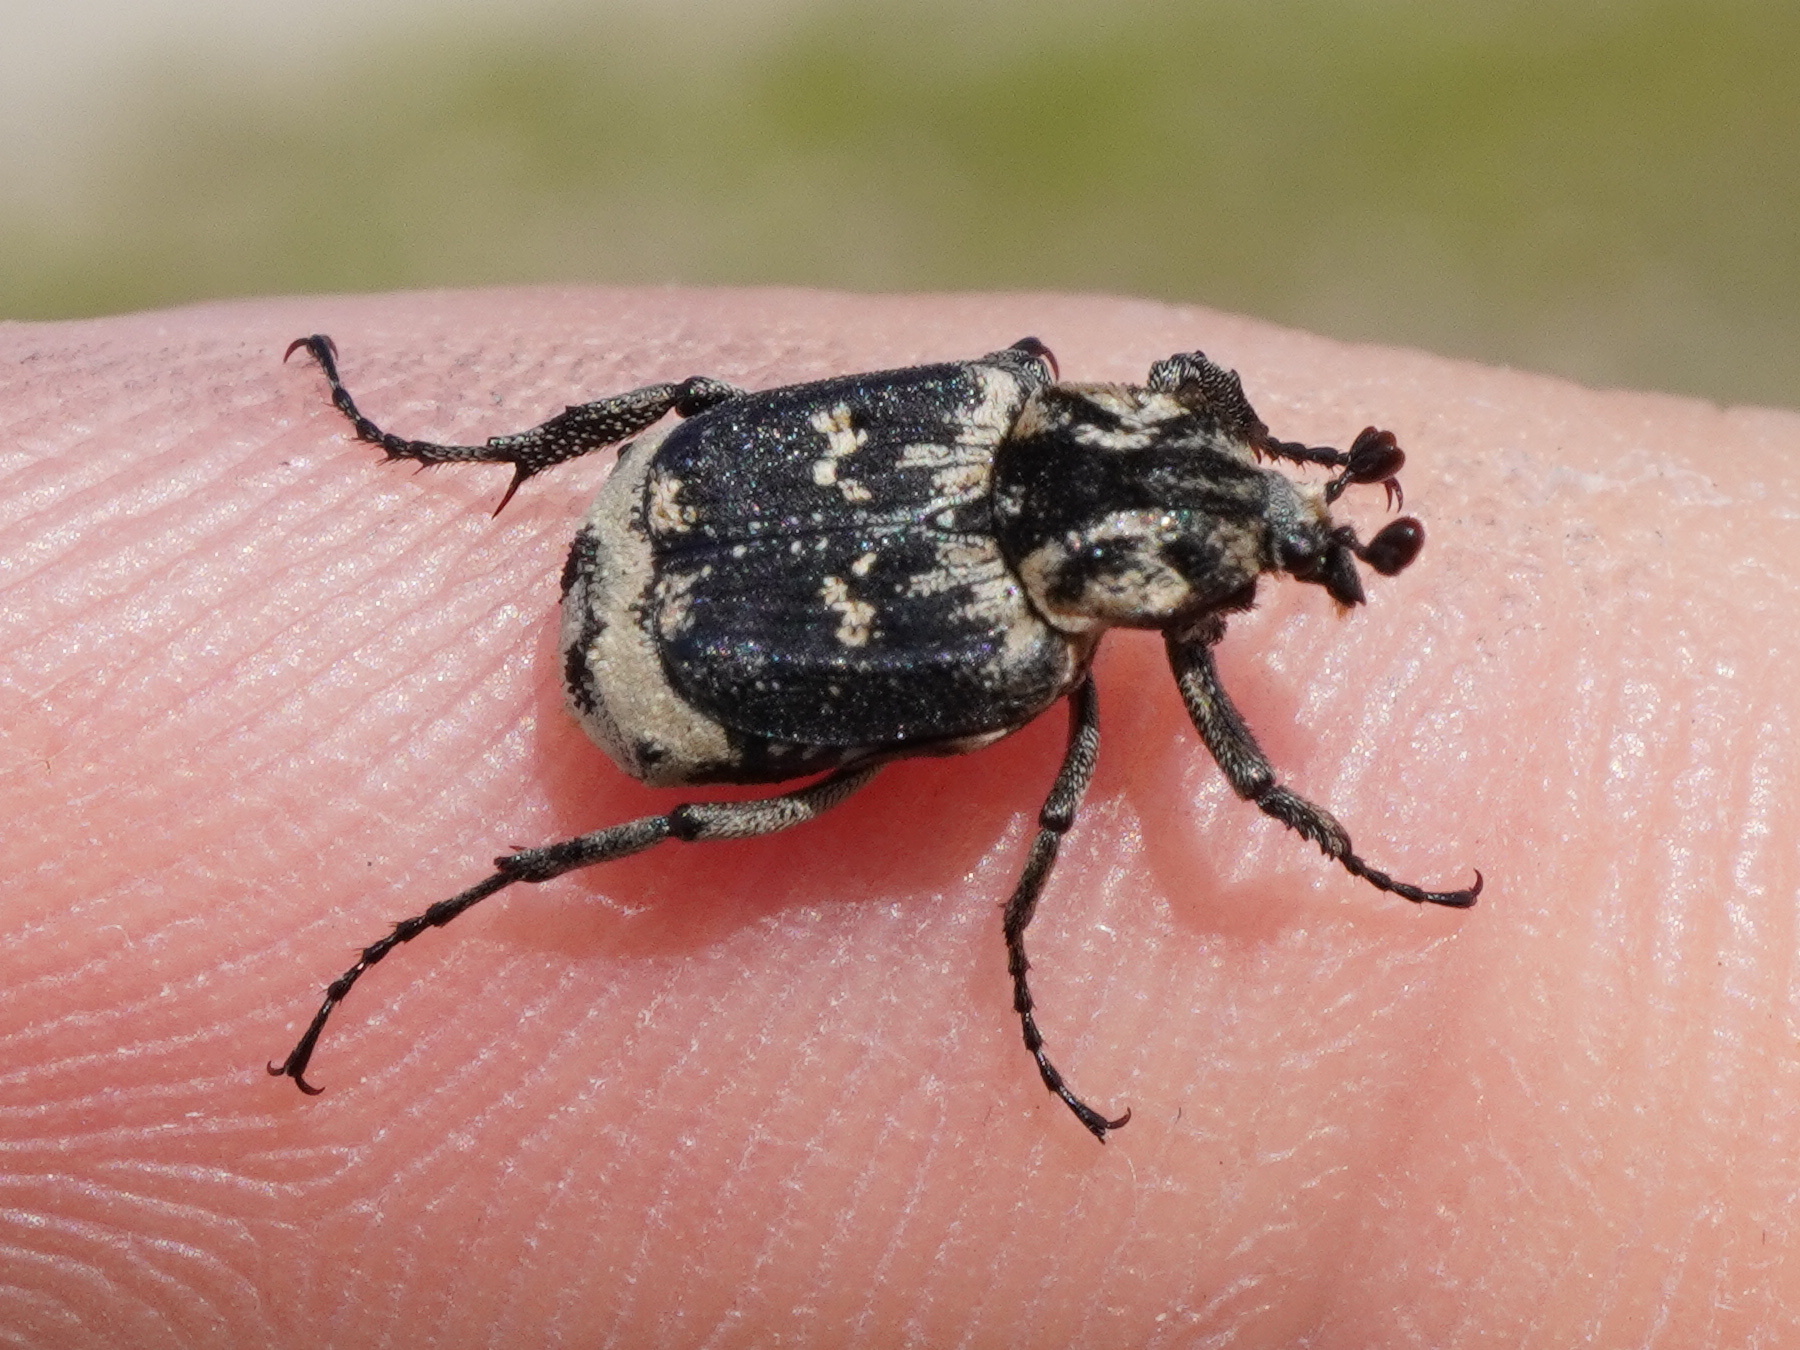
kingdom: Animalia
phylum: Arthropoda
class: Insecta
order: Coleoptera
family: Scarabaeidae
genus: Valgus
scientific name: Valgus hemipterus
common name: Bug flower chafer
